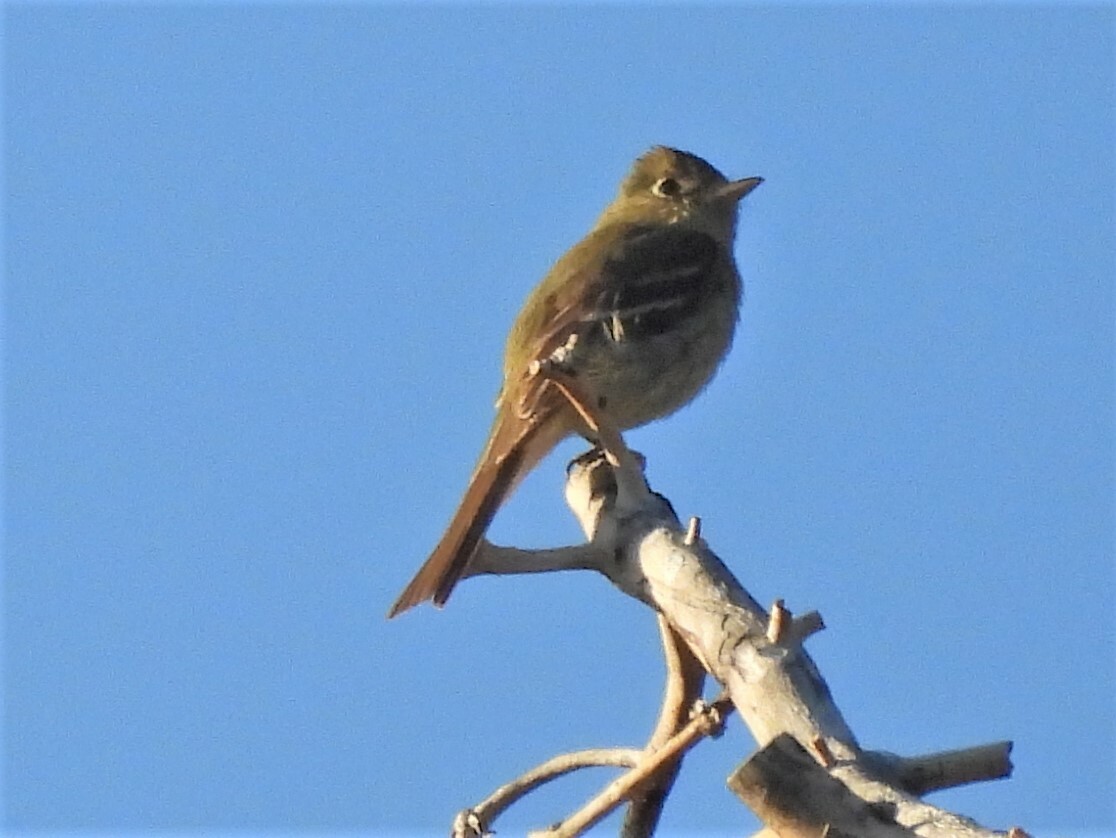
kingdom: Animalia
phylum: Chordata
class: Aves
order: Passeriformes
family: Tyrannidae
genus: Empidonax
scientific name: Empidonax difficilis
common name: Pacific-slope flycatcher
